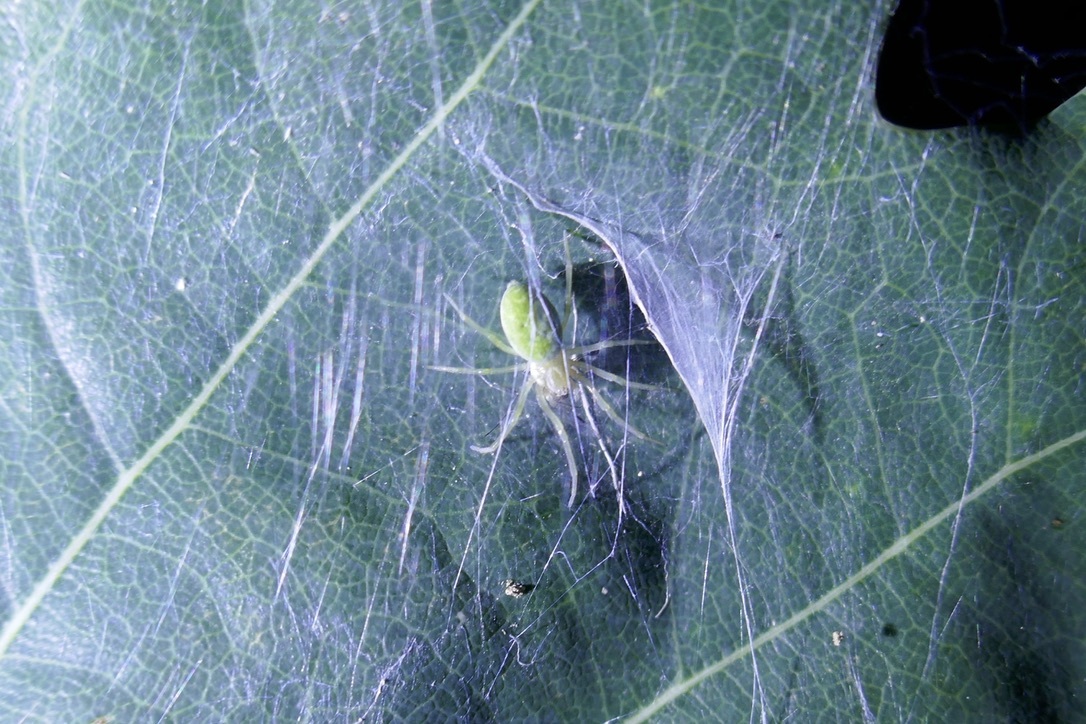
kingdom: Animalia
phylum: Arthropoda
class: Arachnida
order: Araneae
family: Dictynidae
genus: Nigma
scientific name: Nigma walckenaeri
